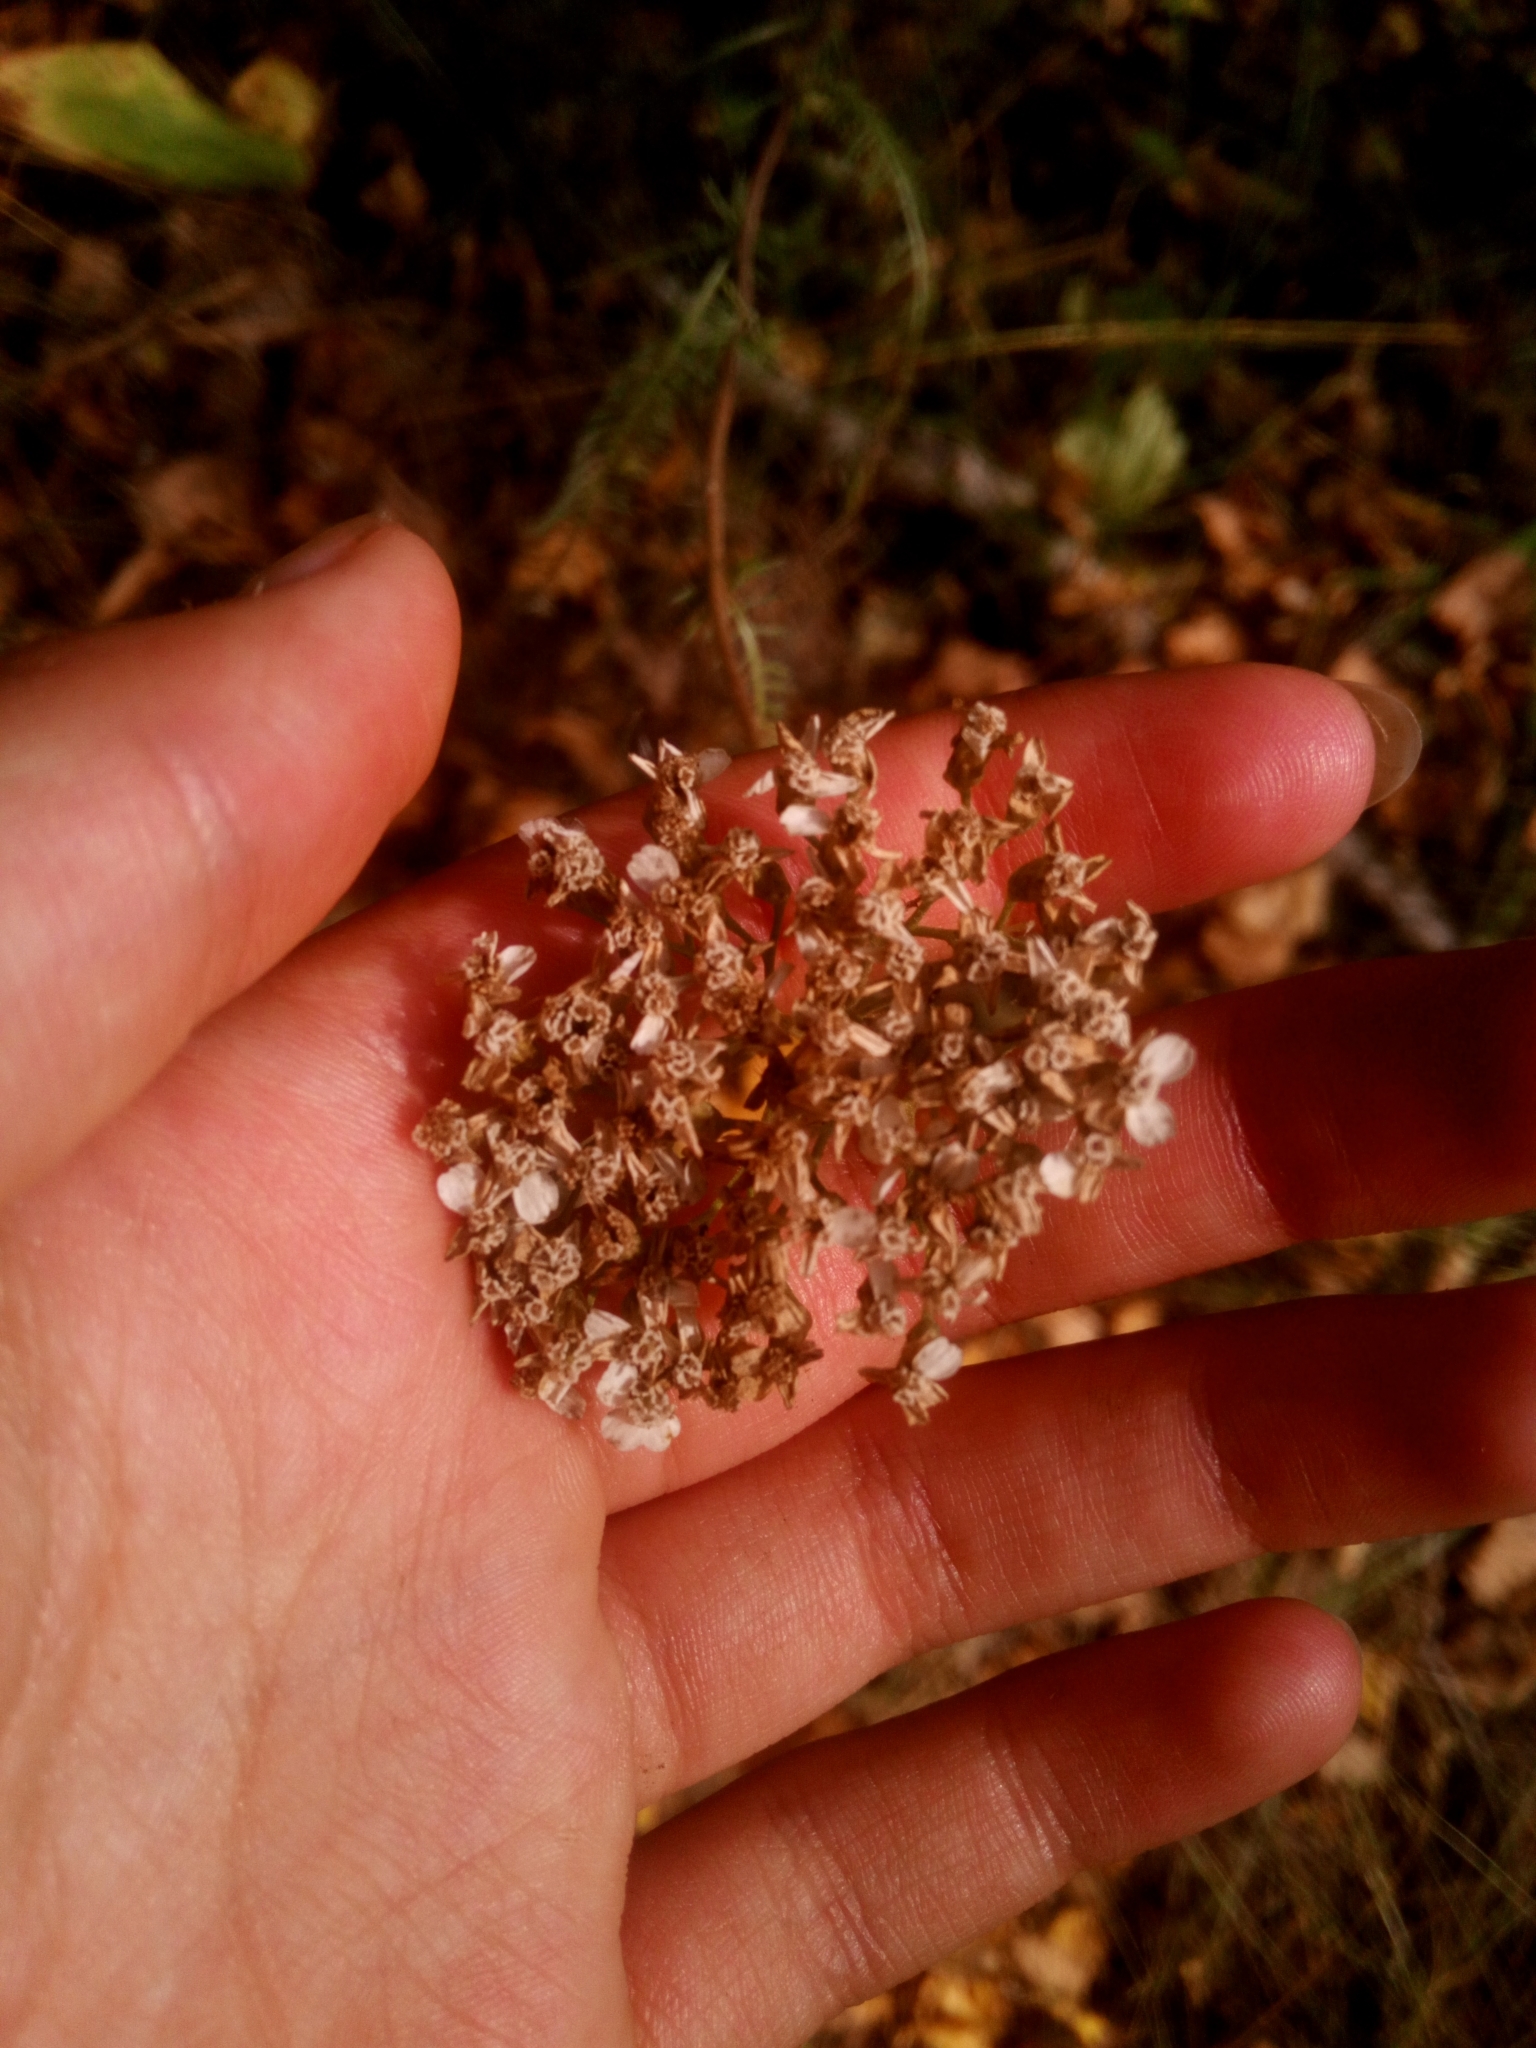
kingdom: Plantae
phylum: Tracheophyta
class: Magnoliopsida
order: Asterales
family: Asteraceae
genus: Achillea
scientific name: Achillea millefolium
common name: Yarrow
